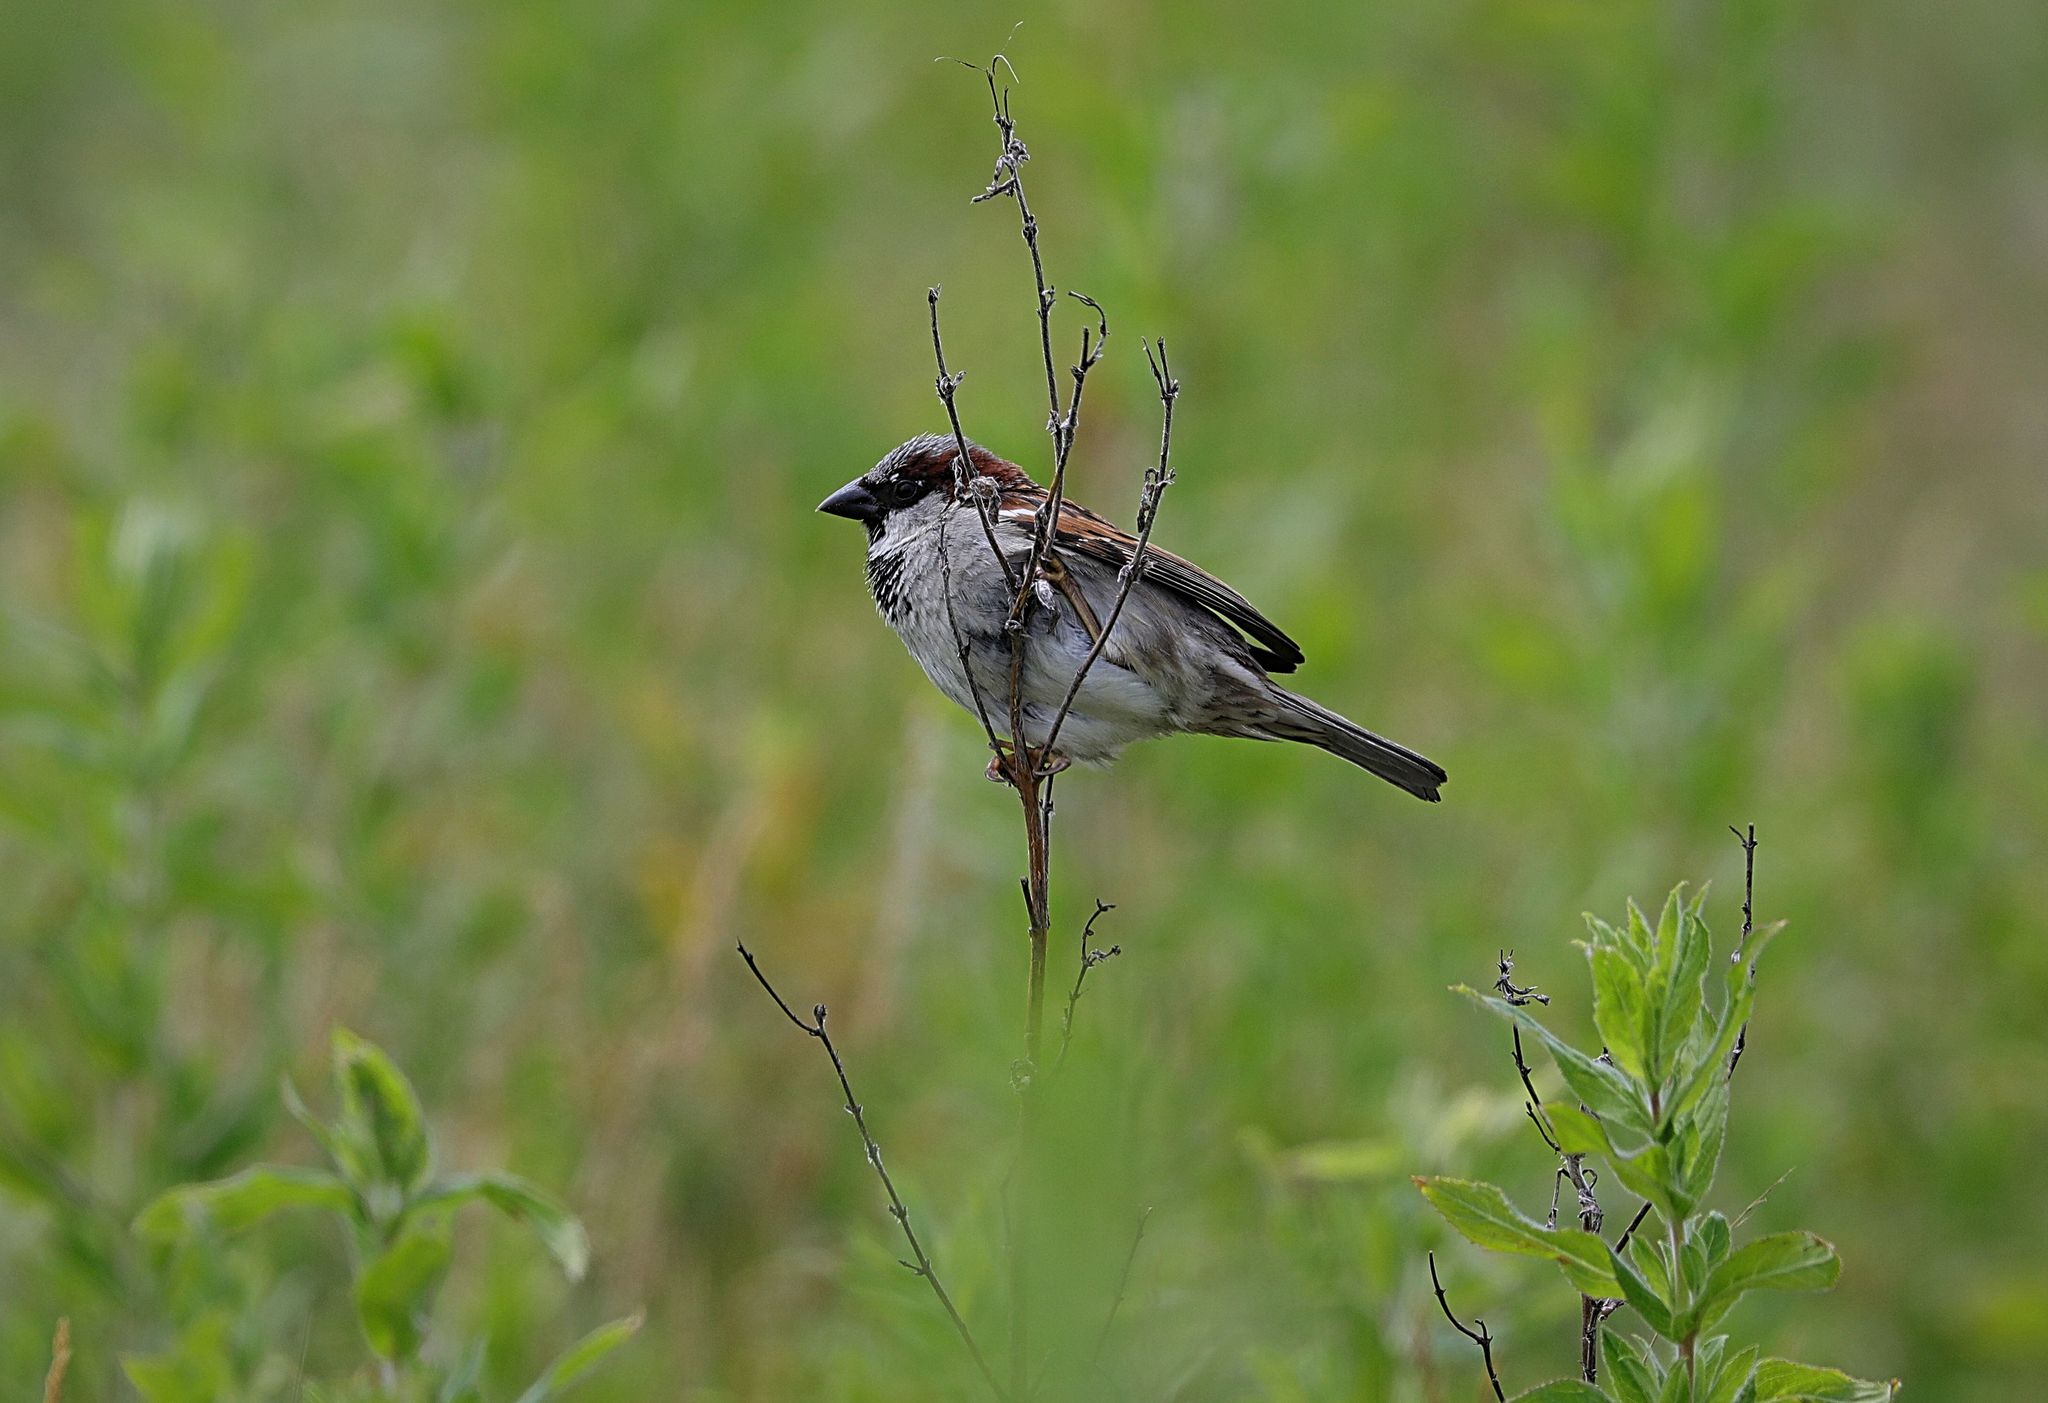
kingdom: Animalia
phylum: Chordata
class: Aves
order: Passeriformes
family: Passeridae
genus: Passer
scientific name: Passer domesticus
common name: House sparrow
